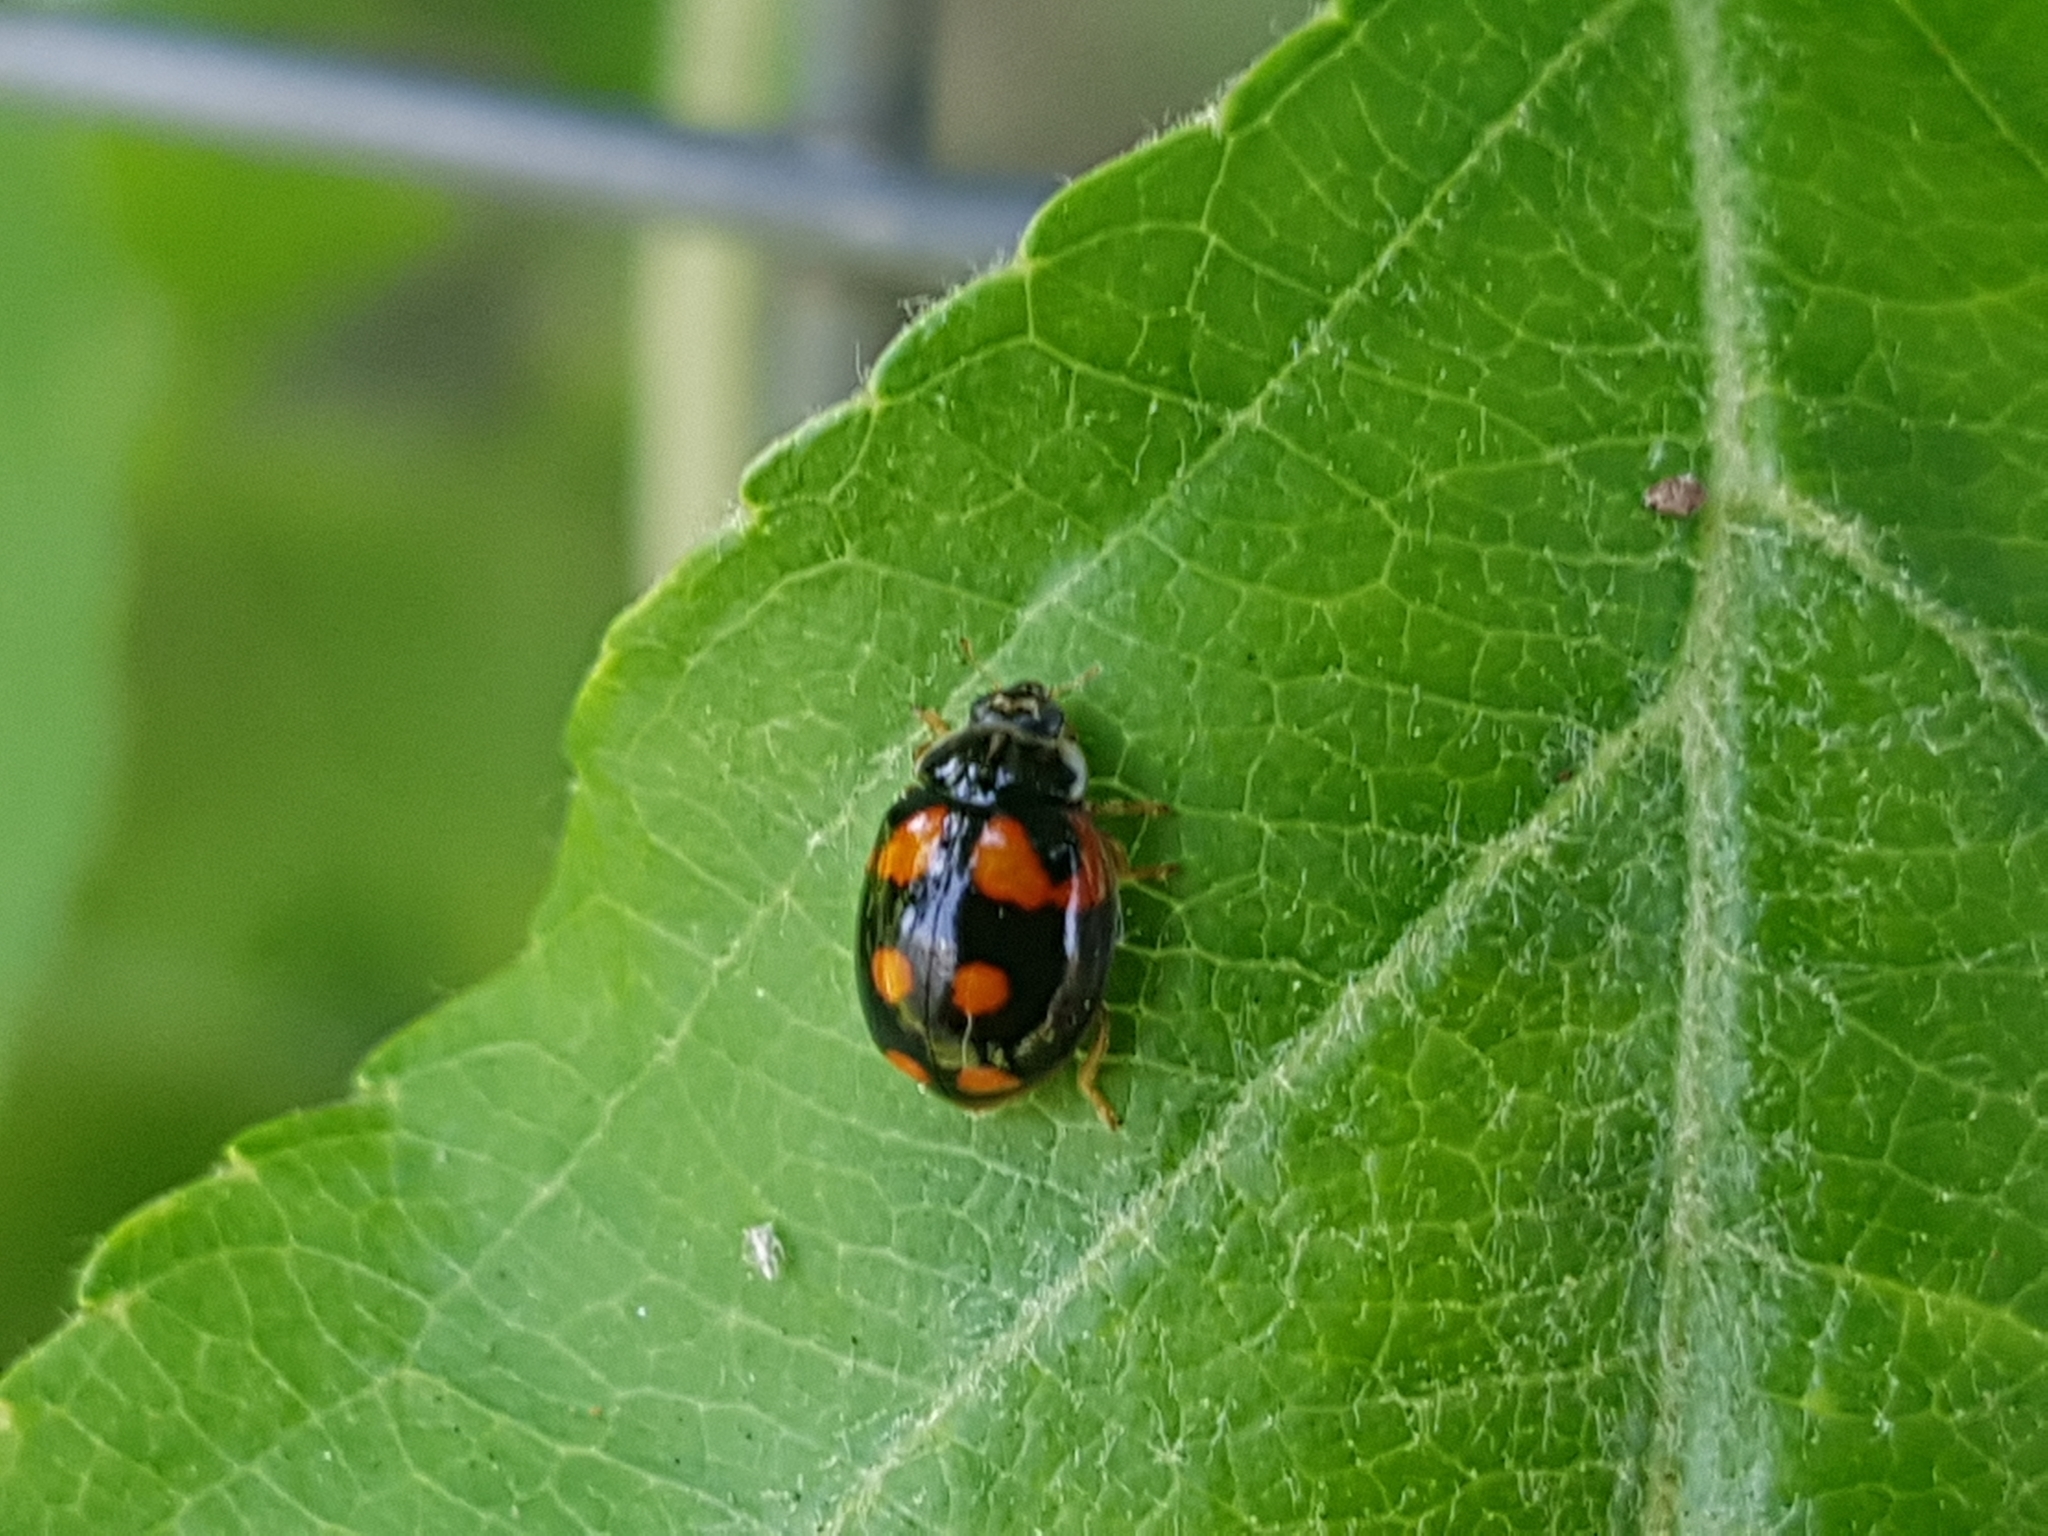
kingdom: Animalia
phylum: Arthropoda
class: Insecta
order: Coleoptera
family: Coccinellidae
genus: Adalia
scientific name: Adalia decempunctata
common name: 10-spot ladybird
